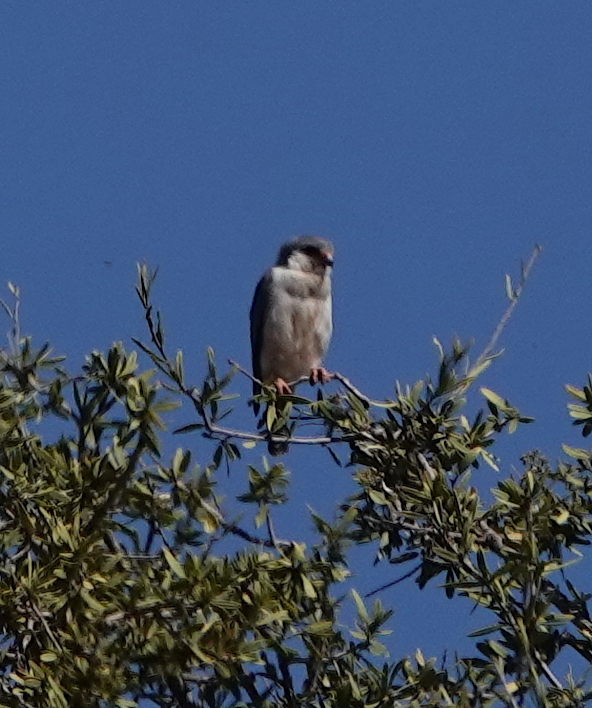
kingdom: Animalia
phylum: Chordata
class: Aves
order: Falconiformes
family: Falconidae
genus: Polihierax
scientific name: Polihierax semitorquatus
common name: Pygmy falcon
